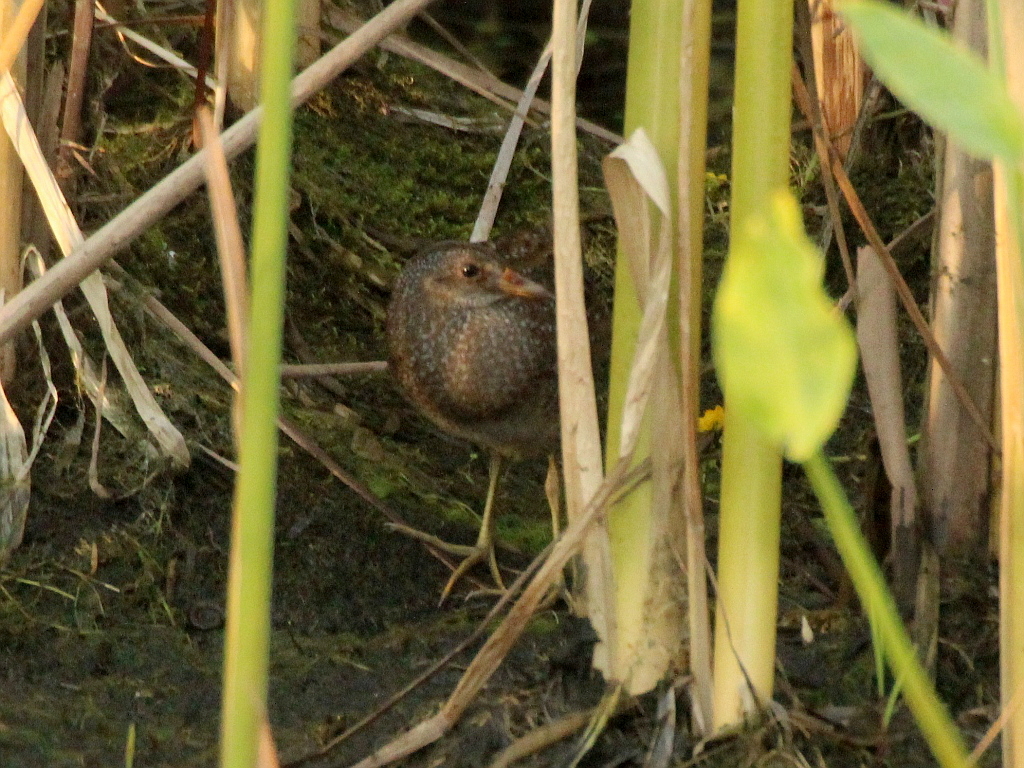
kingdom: Animalia
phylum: Chordata
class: Aves
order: Gruiformes
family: Rallidae
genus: Porzana
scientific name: Porzana porzana
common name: Spotted crake
